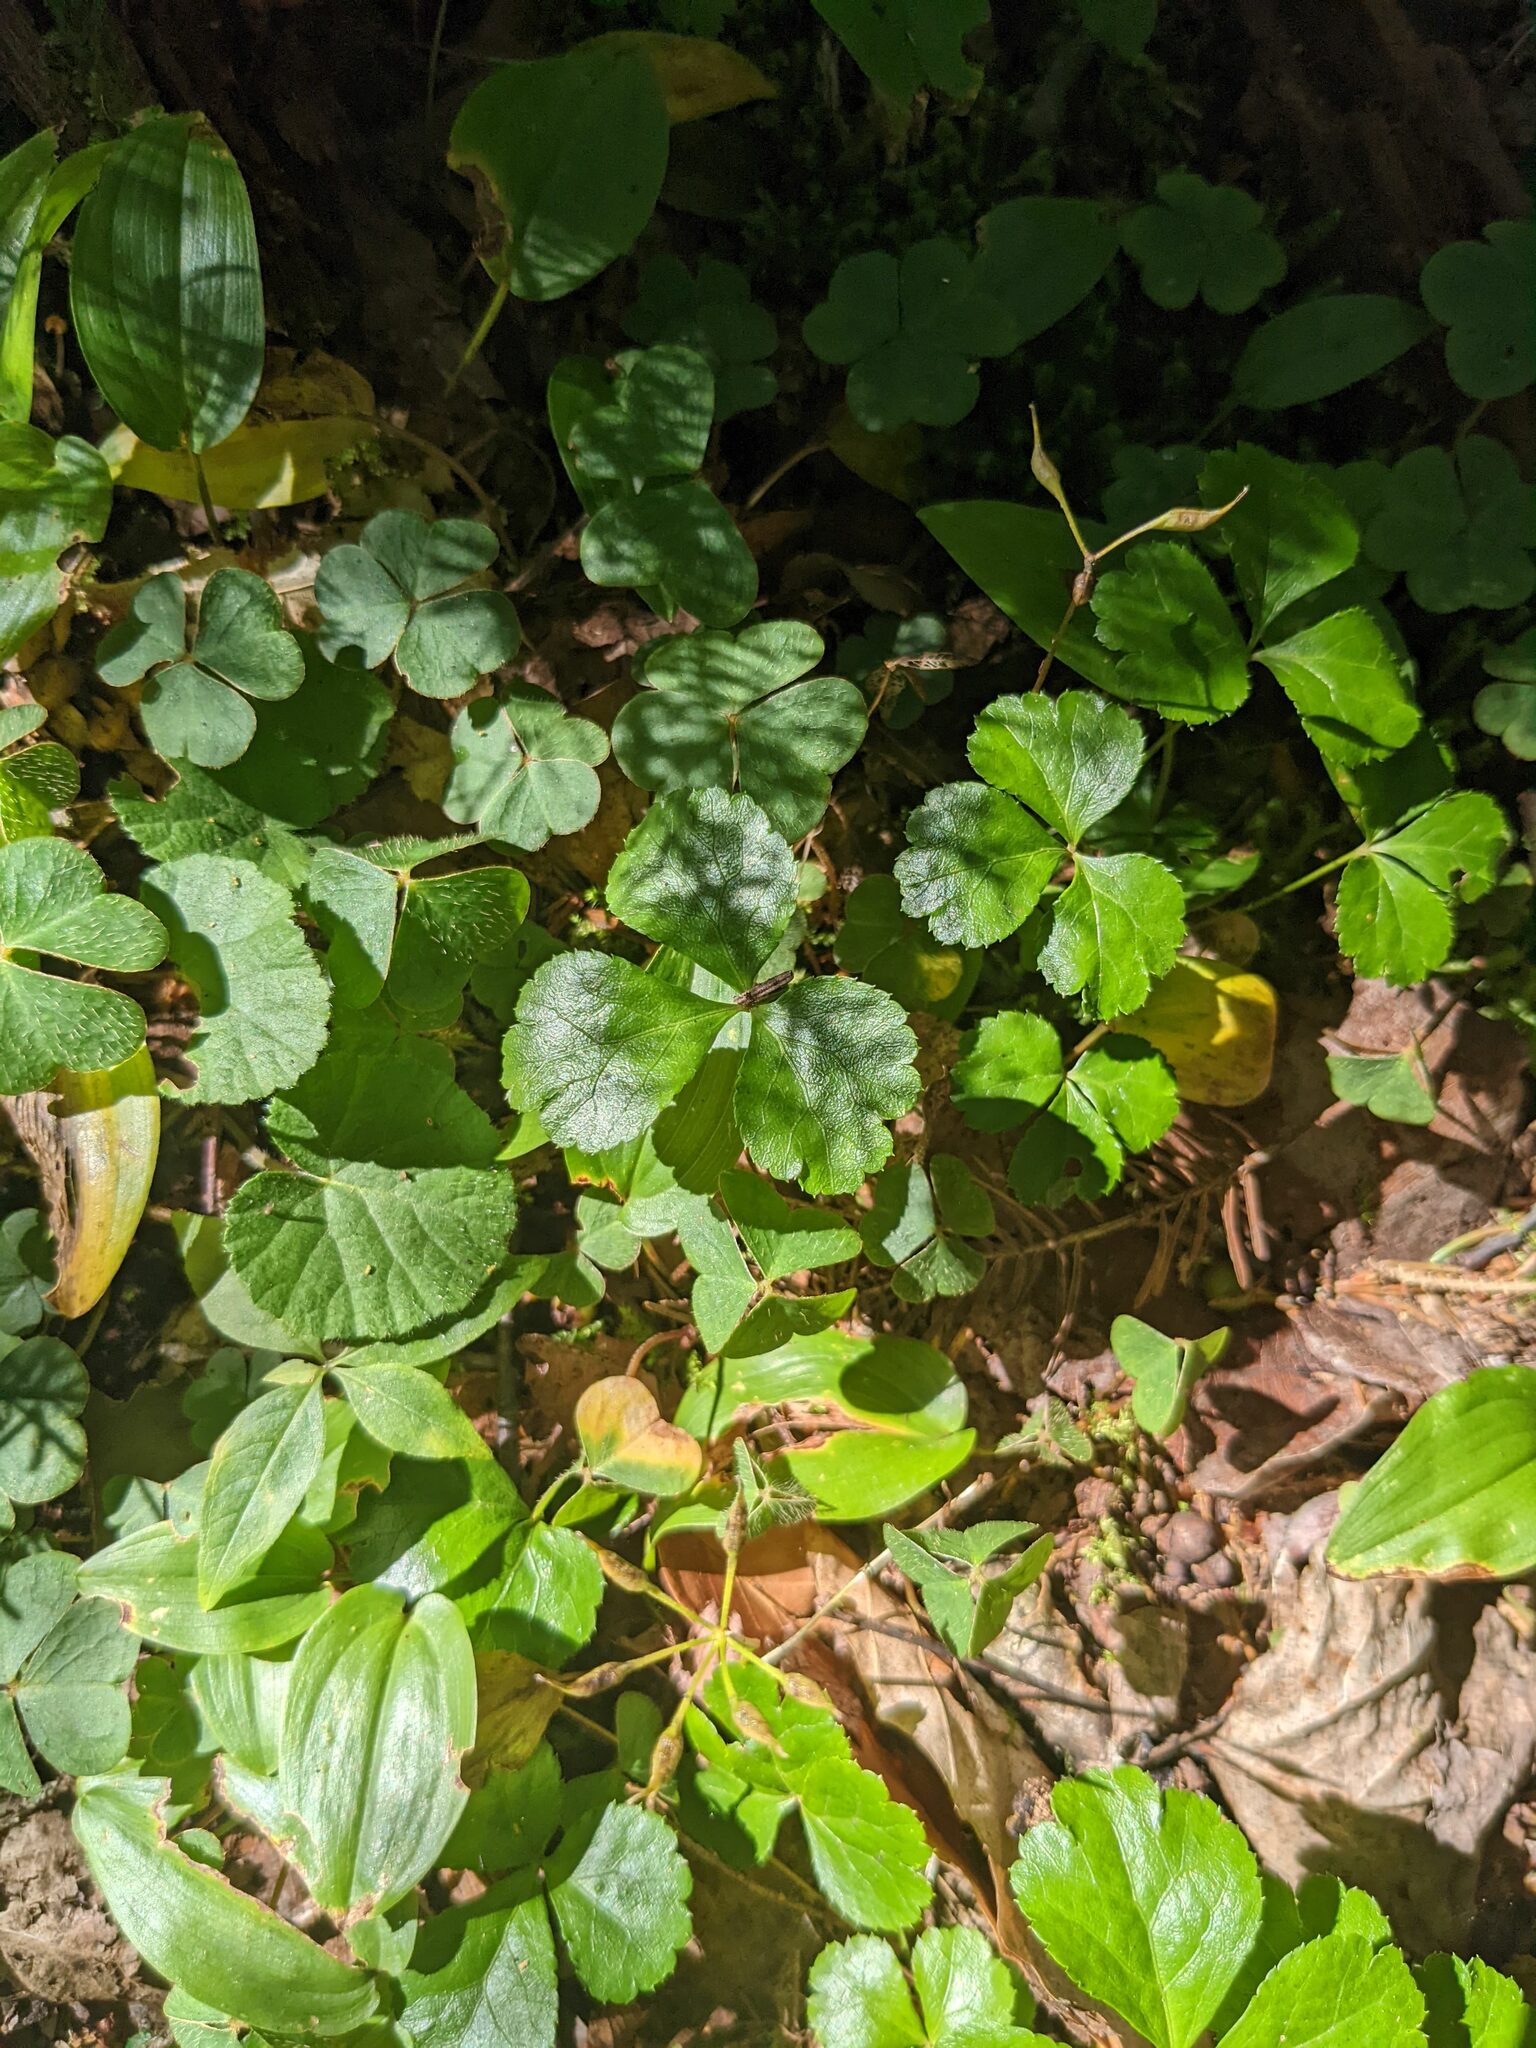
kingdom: Plantae
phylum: Tracheophyta
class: Magnoliopsida
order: Ranunculales
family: Ranunculaceae
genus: Coptis
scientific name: Coptis trifolia
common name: Canker-root
